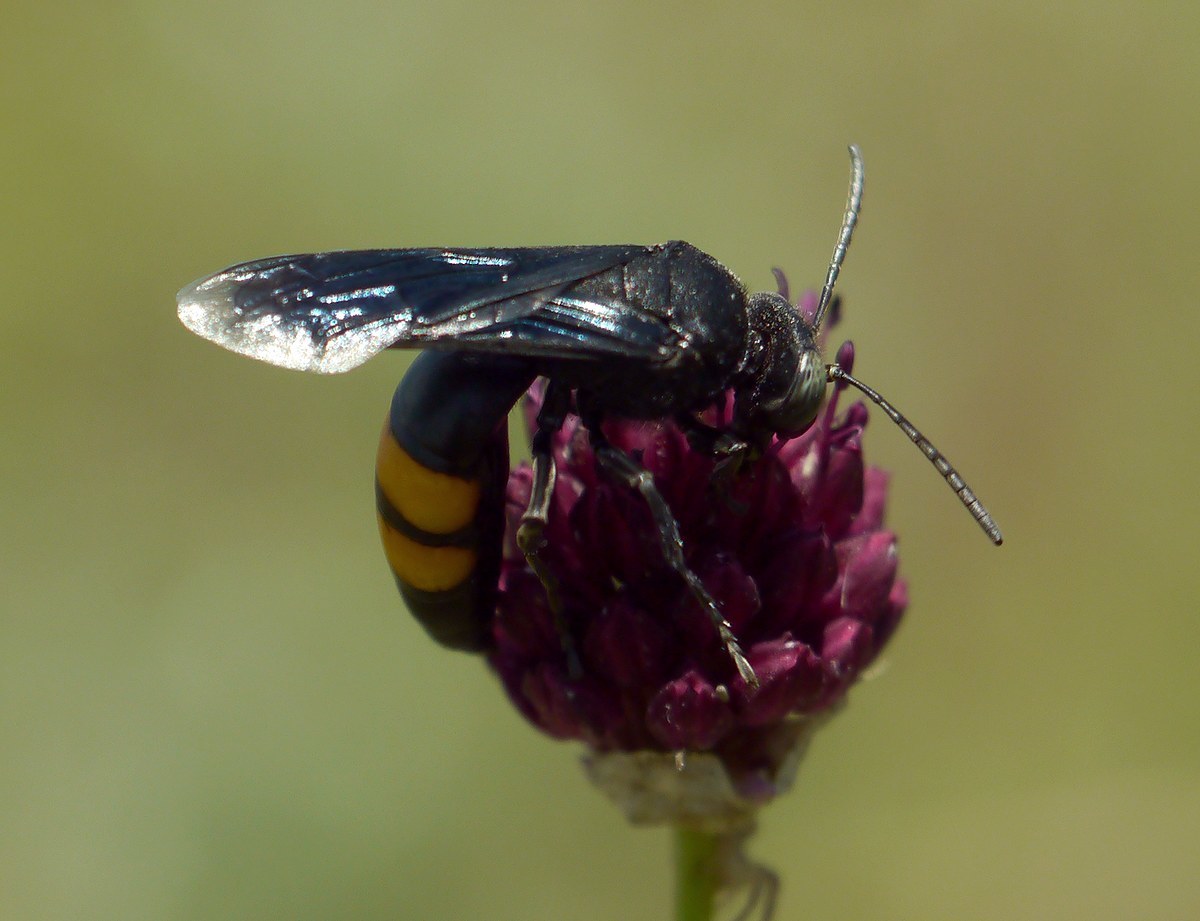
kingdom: Animalia
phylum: Arthropoda
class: Insecta
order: Hymenoptera
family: Crabronidae
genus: Stizoides
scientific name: Stizoides tridentatus
